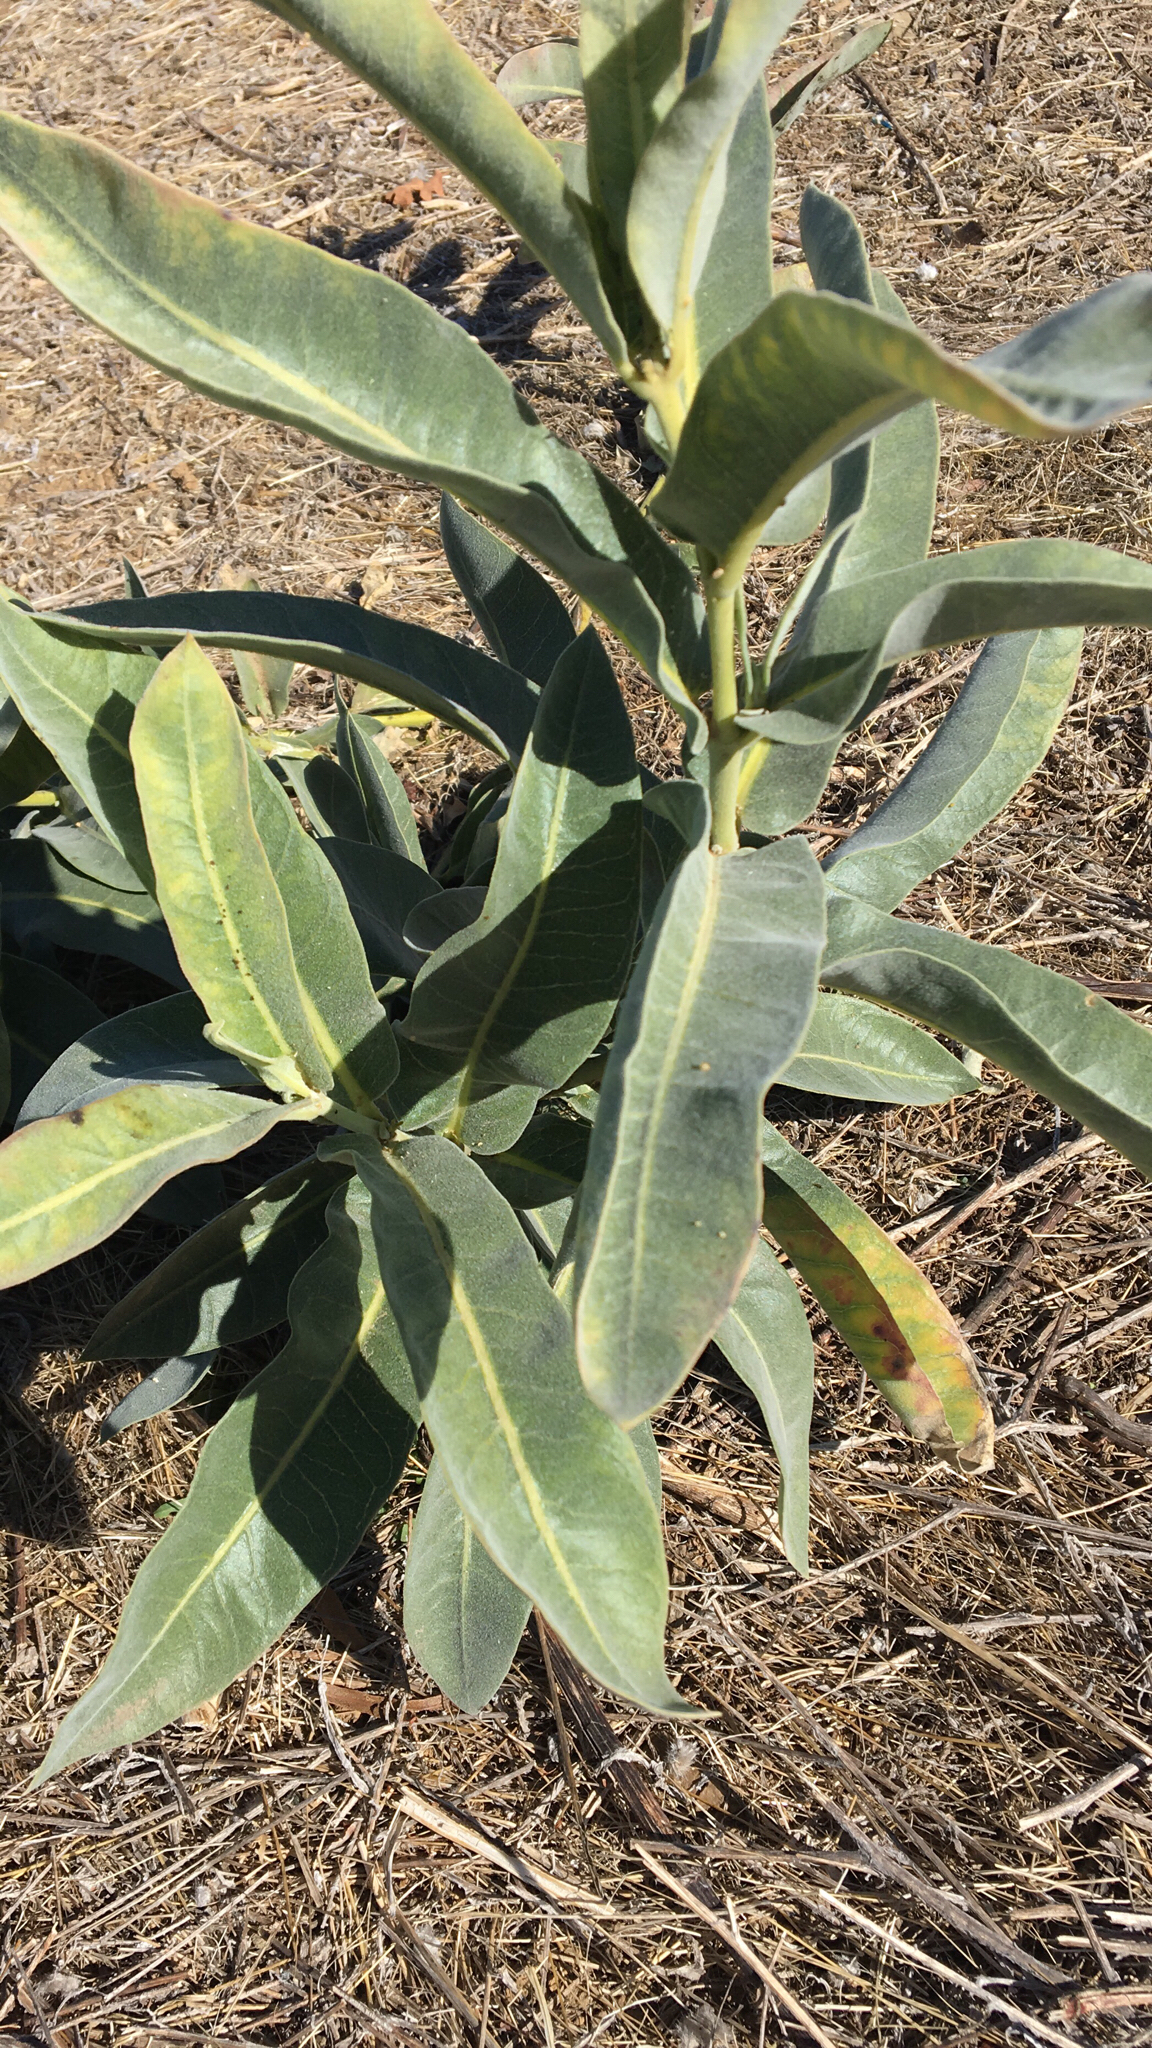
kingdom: Plantae
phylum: Tracheophyta
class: Magnoliopsida
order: Gentianales
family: Apocynaceae
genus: Asclepias
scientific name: Asclepias eriocarpa
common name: Indian milkweed
